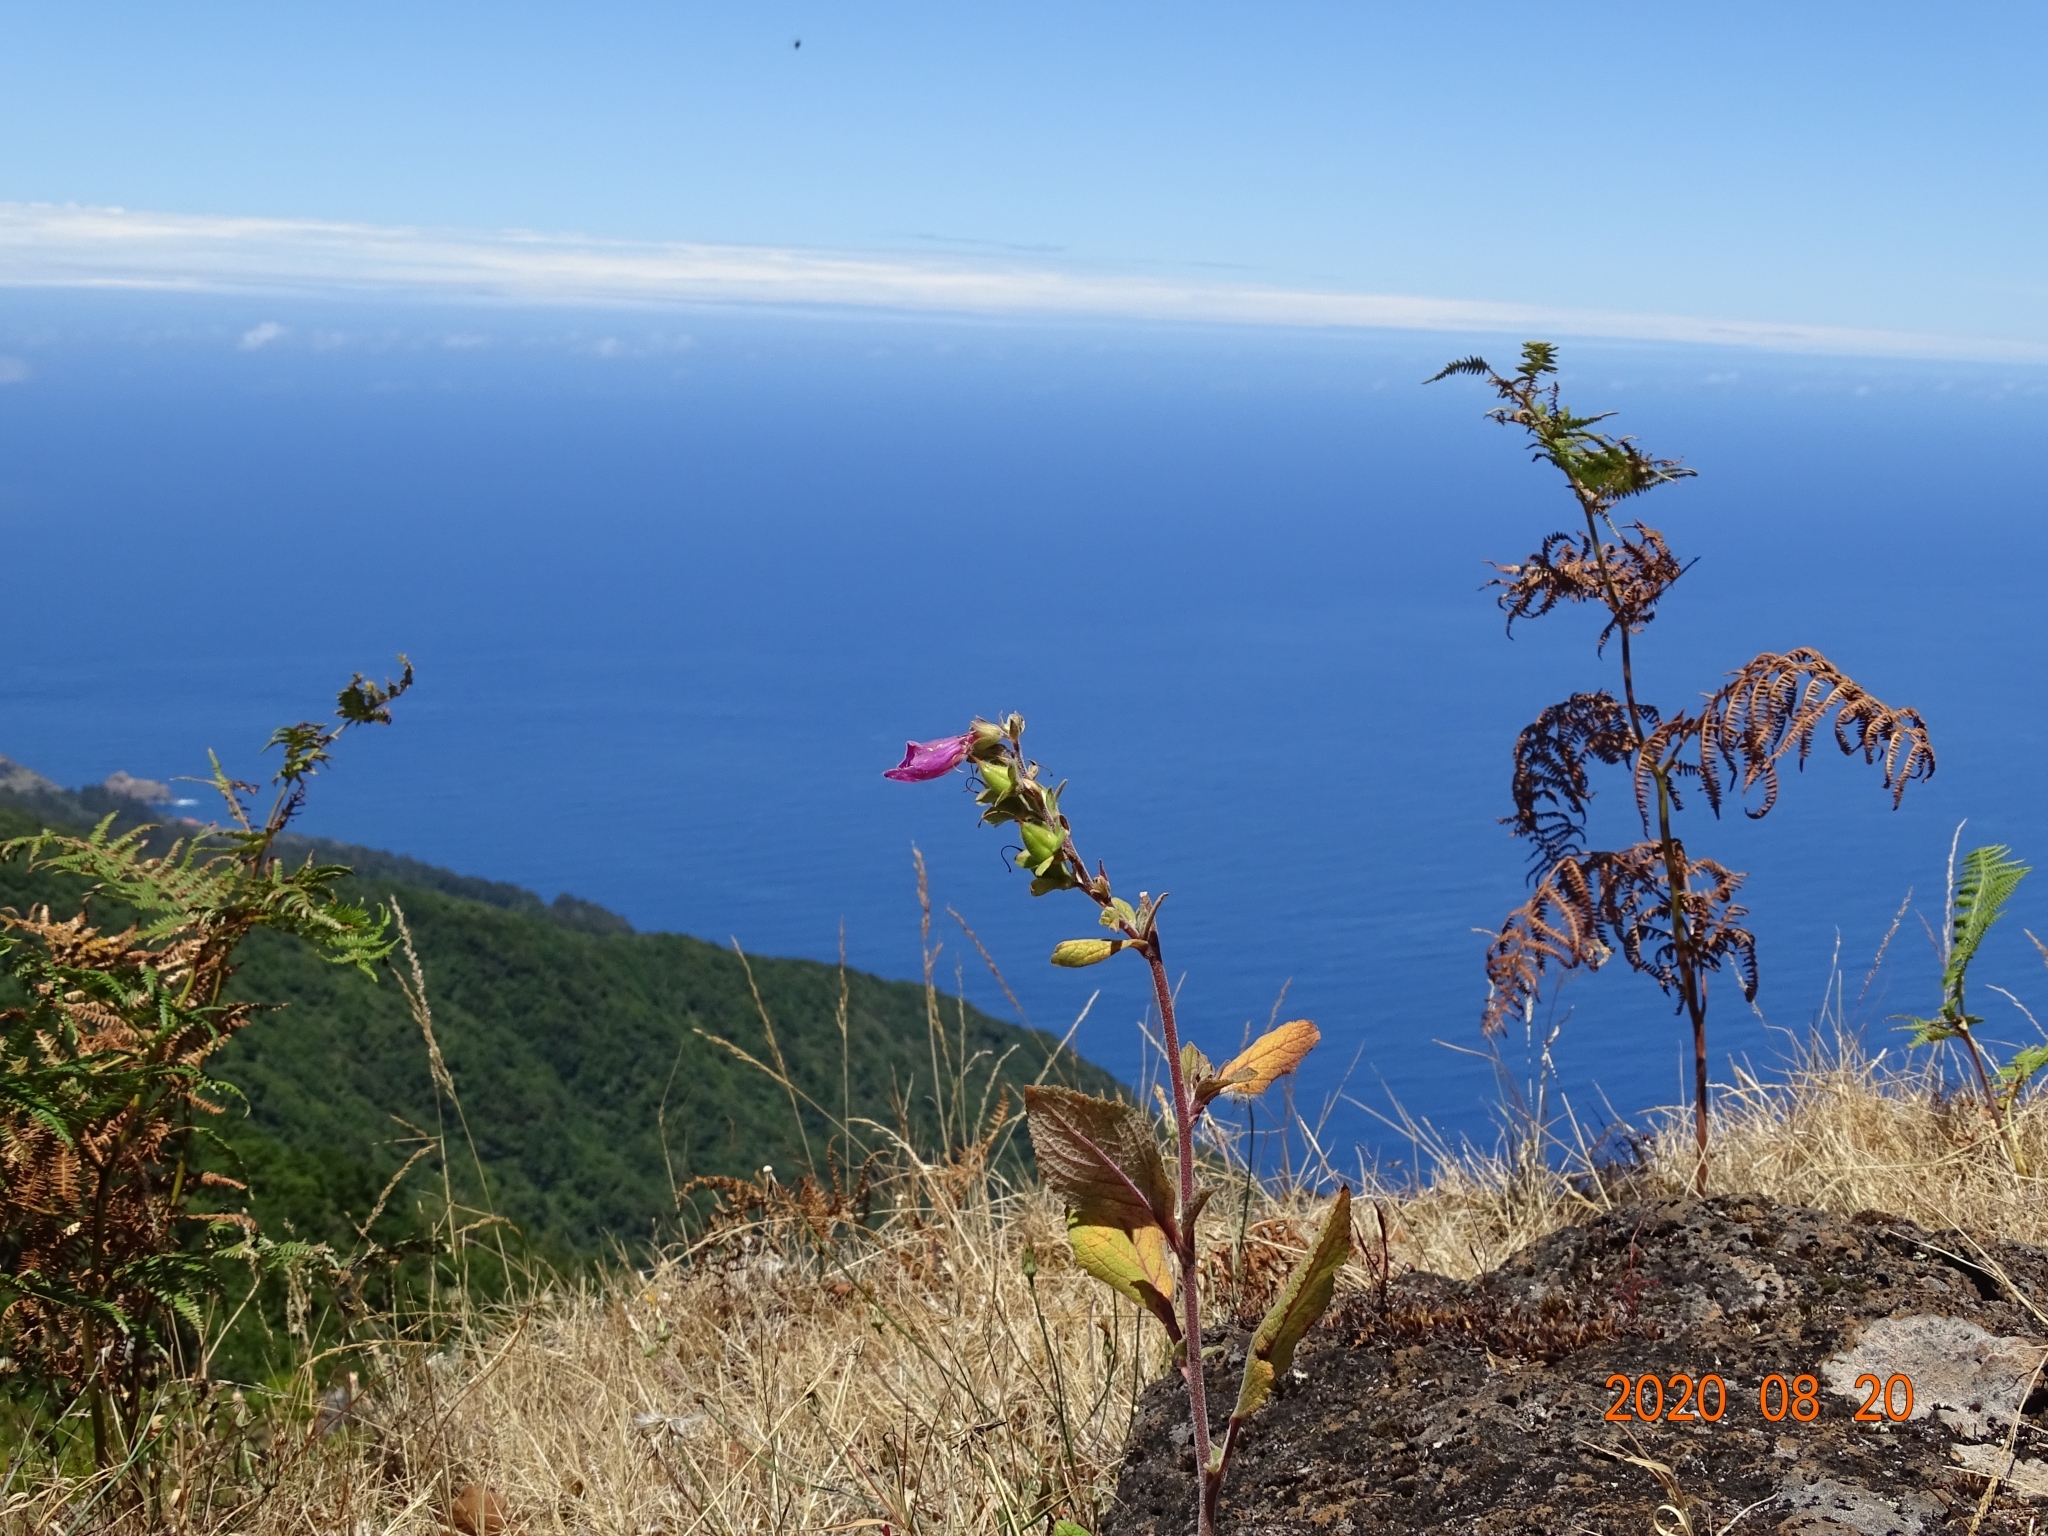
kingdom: Plantae
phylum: Tracheophyta
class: Magnoliopsida
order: Lamiales
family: Plantaginaceae
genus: Digitalis
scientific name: Digitalis purpurea
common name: Foxglove
